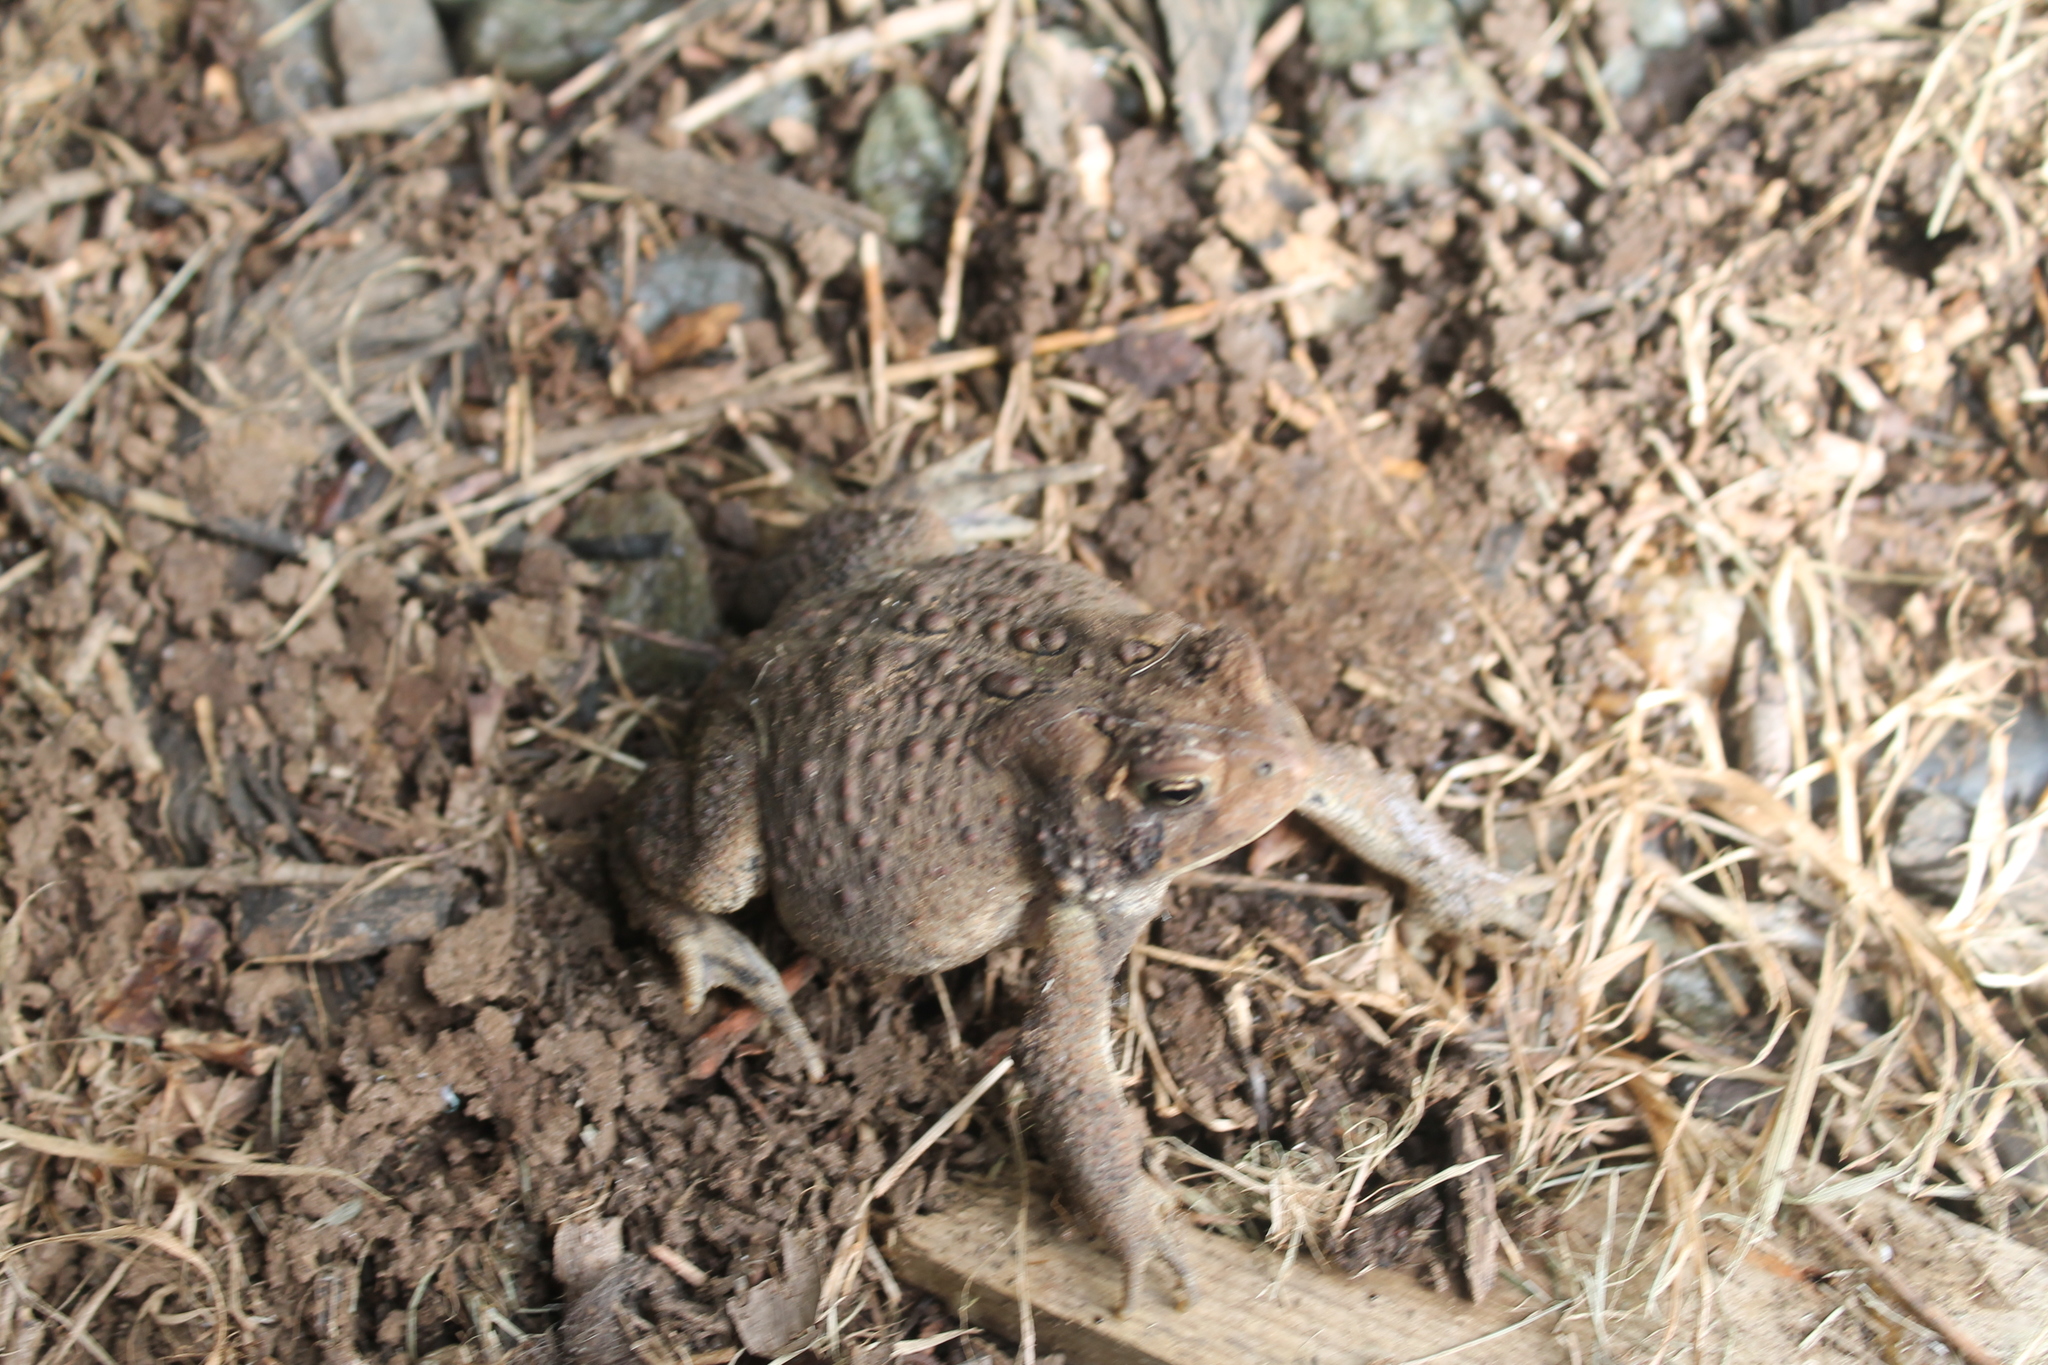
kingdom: Animalia
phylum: Chordata
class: Amphibia
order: Anura
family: Bufonidae
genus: Anaxyrus
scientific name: Anaxyrus americanus
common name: American toad
